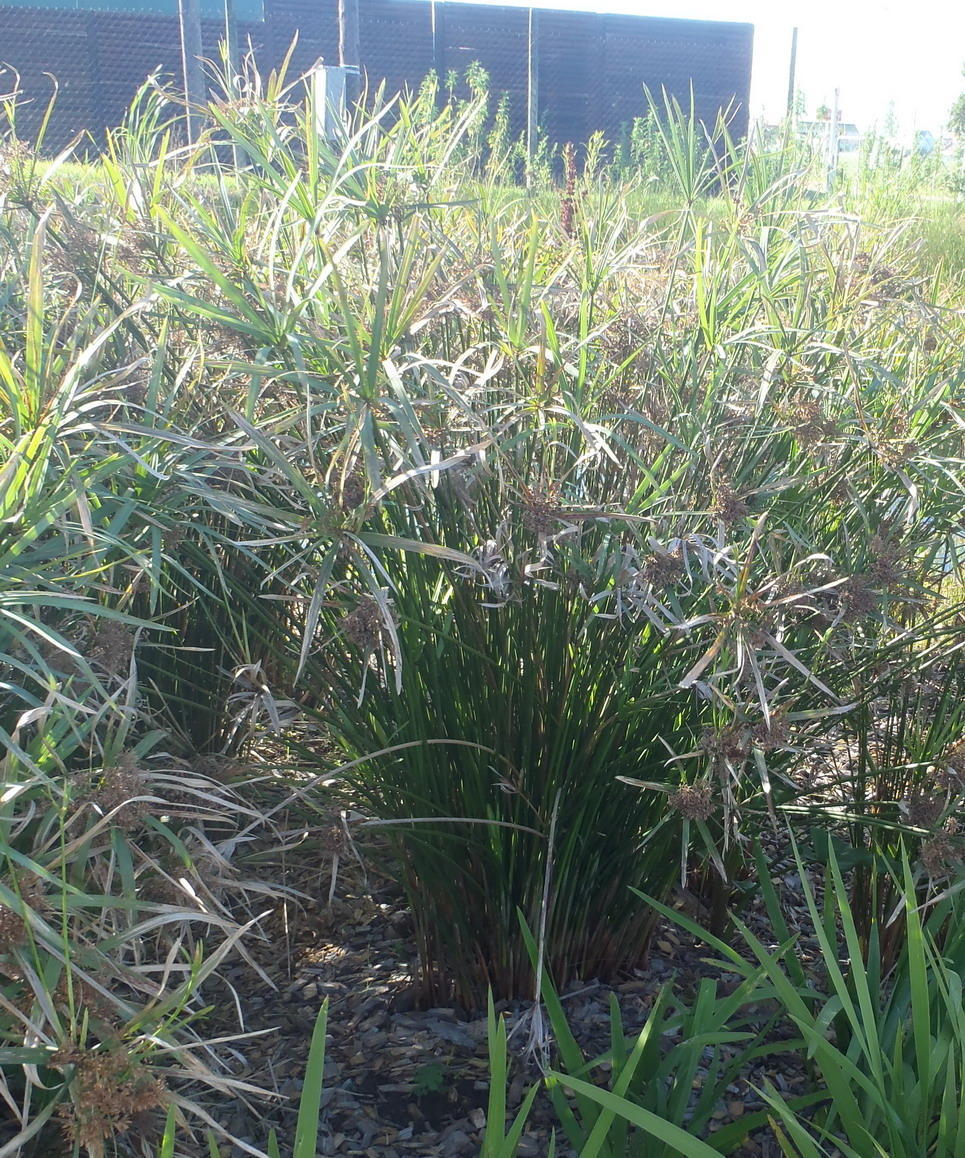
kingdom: Plantae
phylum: Tracheophyta
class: Liliopsida
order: Poales
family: Cyperaceae
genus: Cyperus
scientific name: Cyperus textilis
